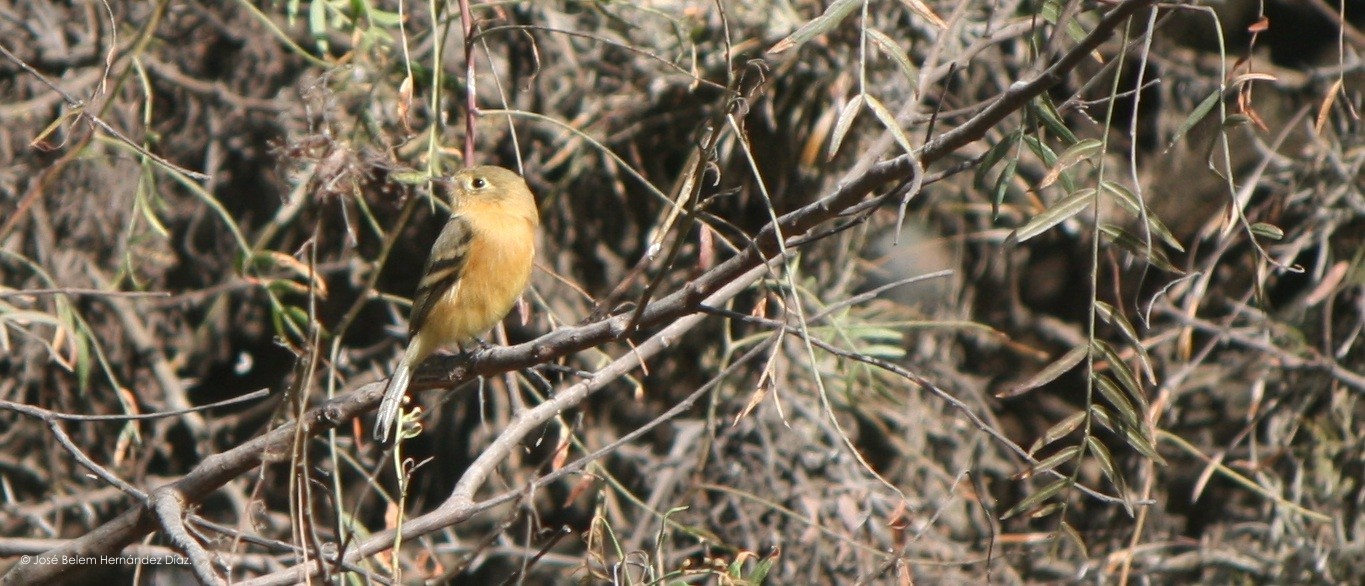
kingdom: Animalia
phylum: Chordata
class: Aves
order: Passeriformes
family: Tyrannidae
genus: Empidonax
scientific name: Empidonax fulvifrons
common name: Buff-breasted flycatcher
